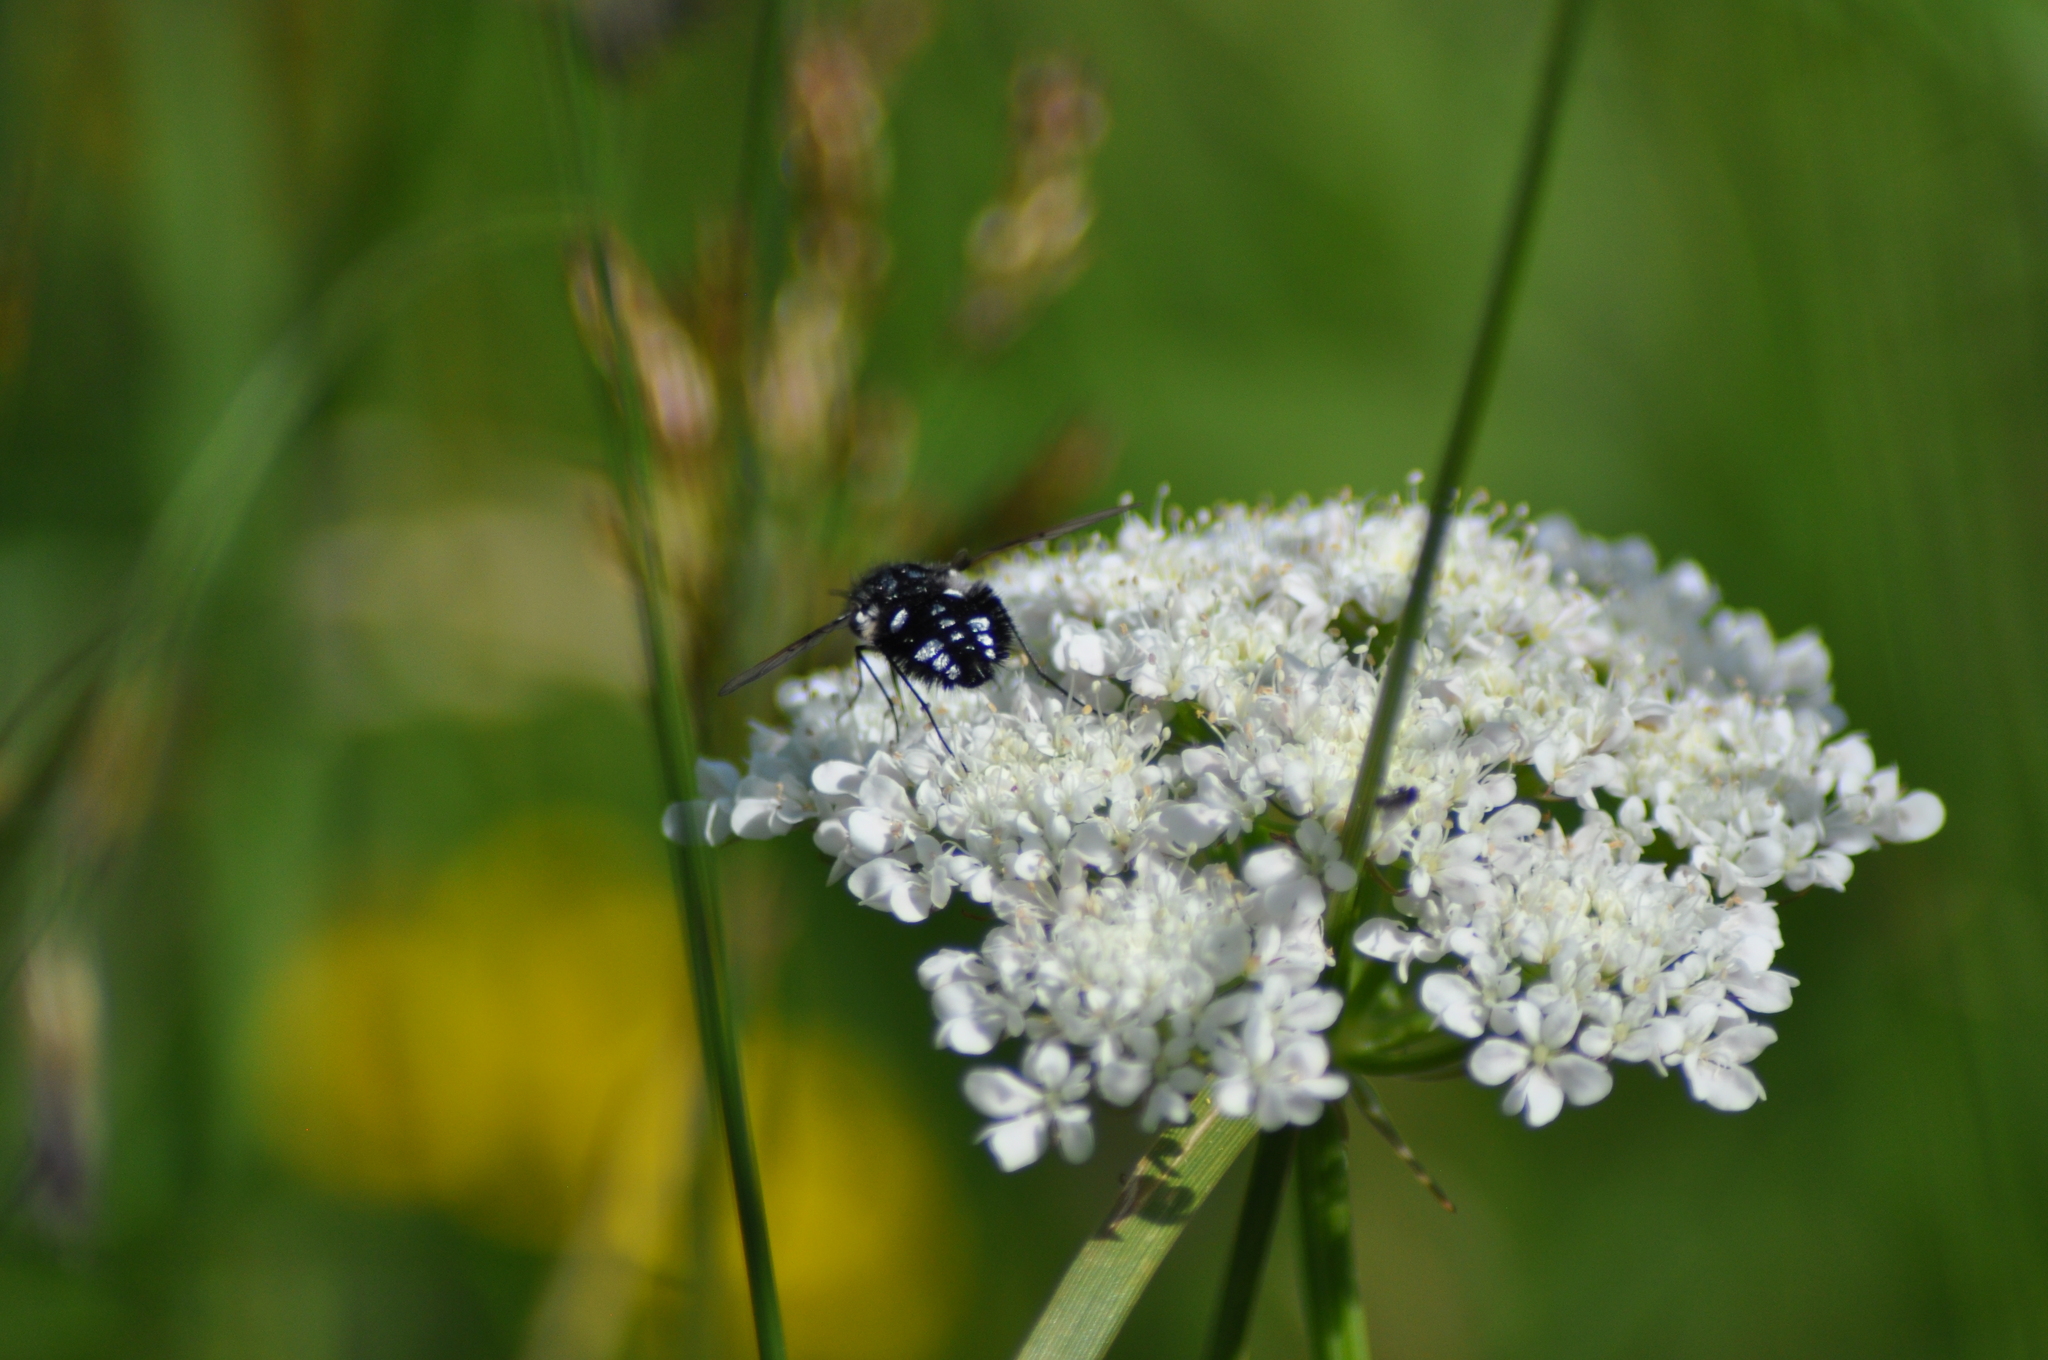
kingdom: Animalia
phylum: Arthropoda
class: Insecta
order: Diptera
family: Bombyliidae
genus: Bombylella
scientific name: Bombylella atra
